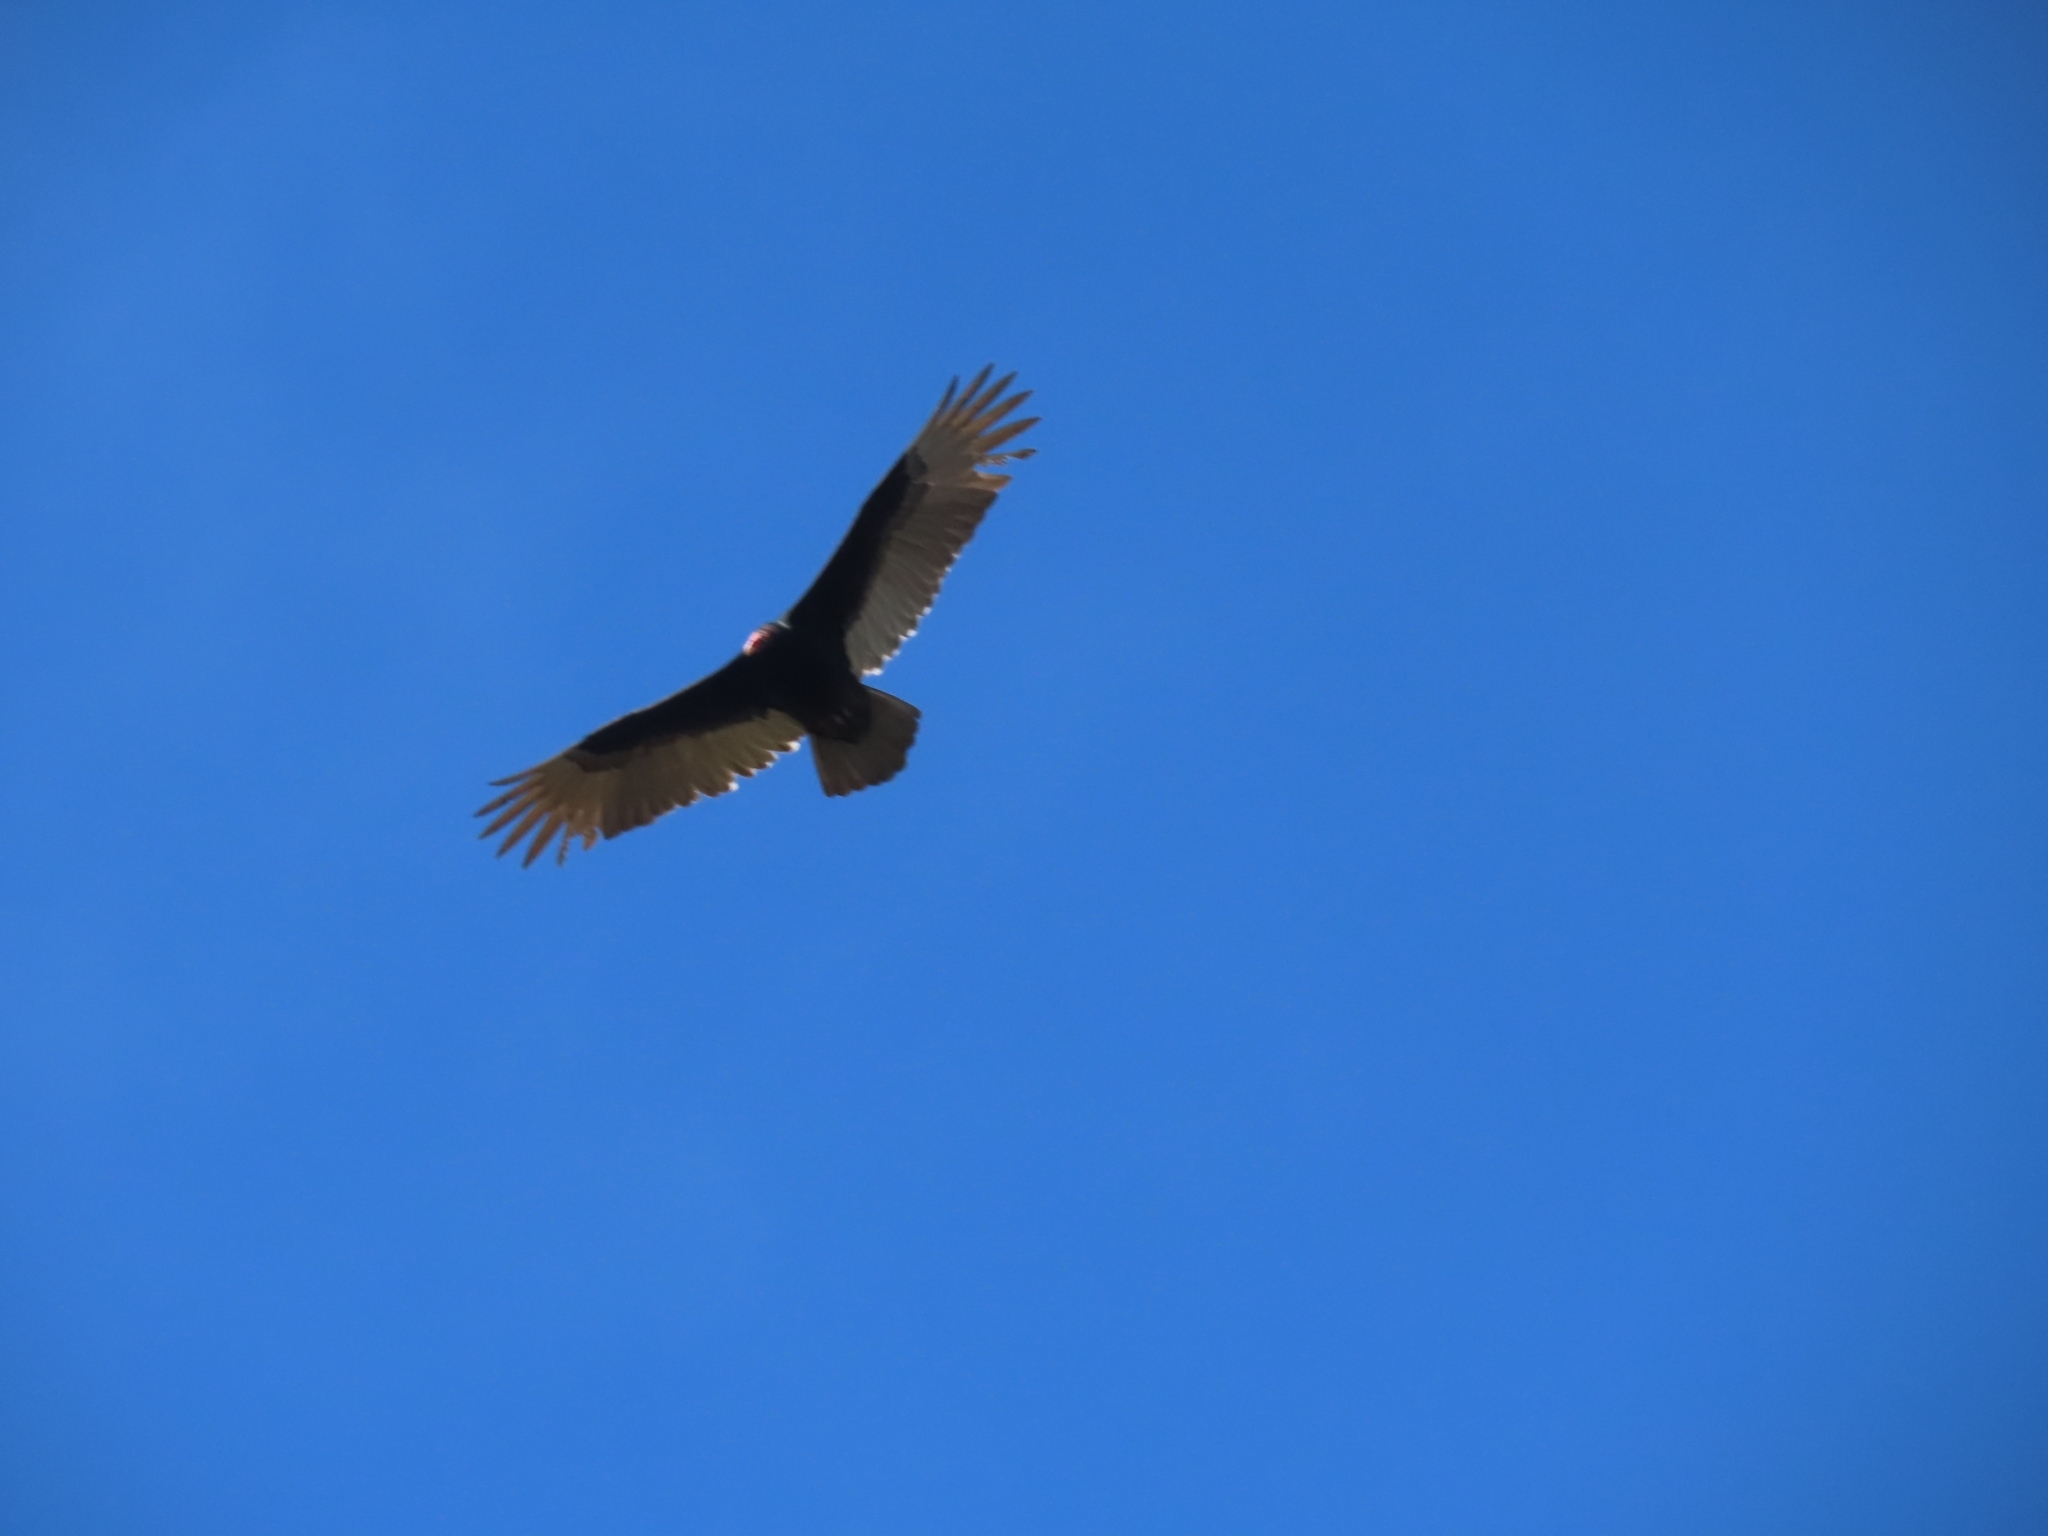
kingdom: Animalia
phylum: Chordata
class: Aves
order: Accipitriformes
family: Cathartidae
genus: Cathartes
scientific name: Cathartes aura
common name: Turkey vulture
